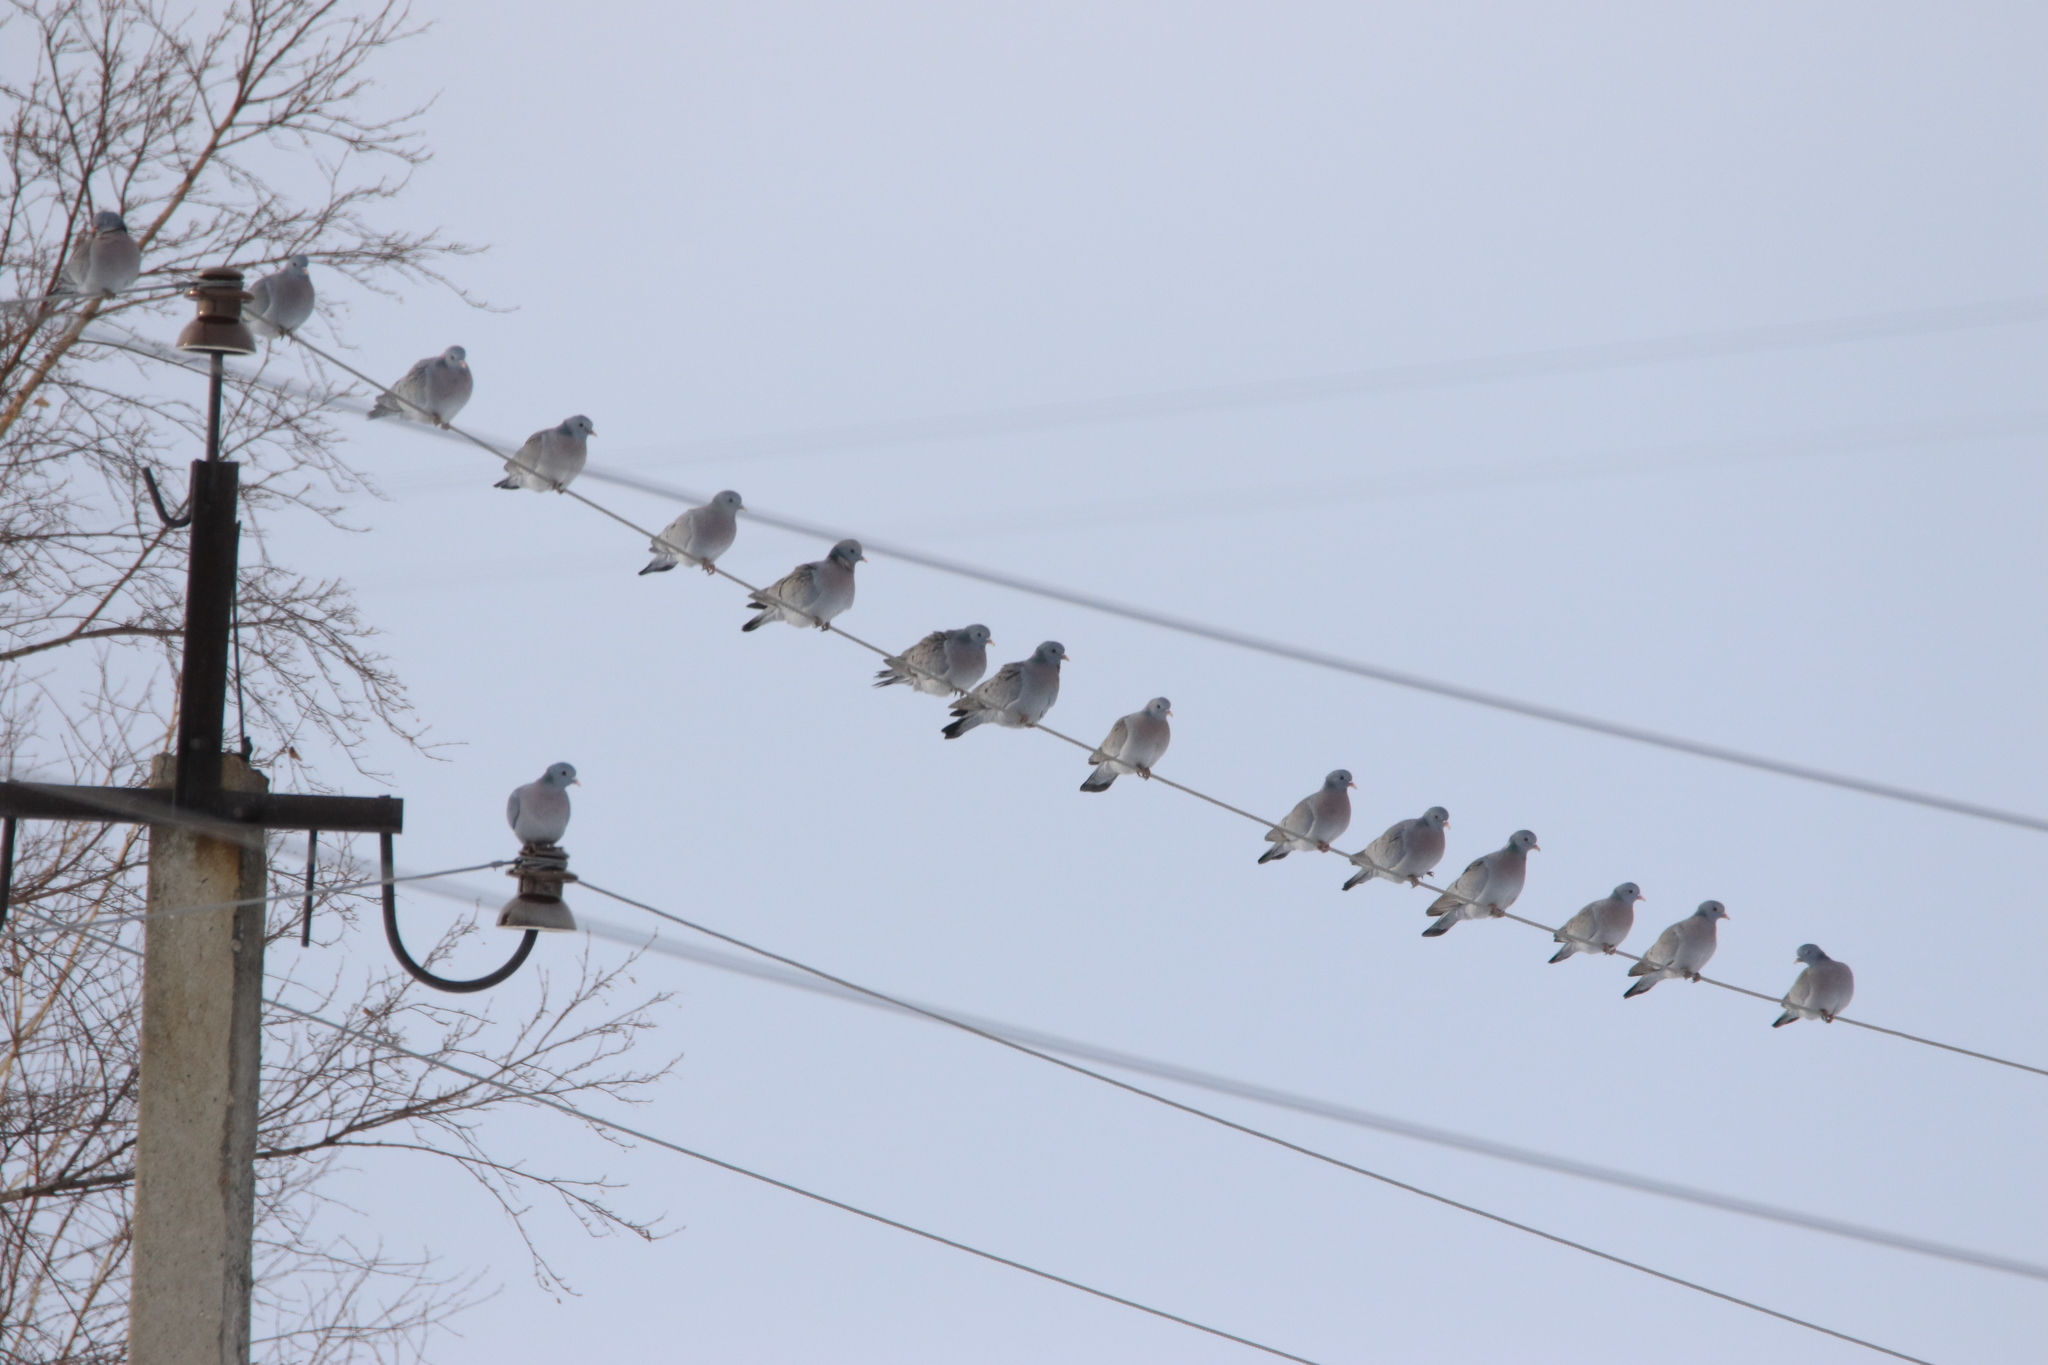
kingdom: Animalia
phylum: Chordata
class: Aves
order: Columbiformes
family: Columbidae
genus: Columba
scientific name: Columba oenas
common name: Stock dove
